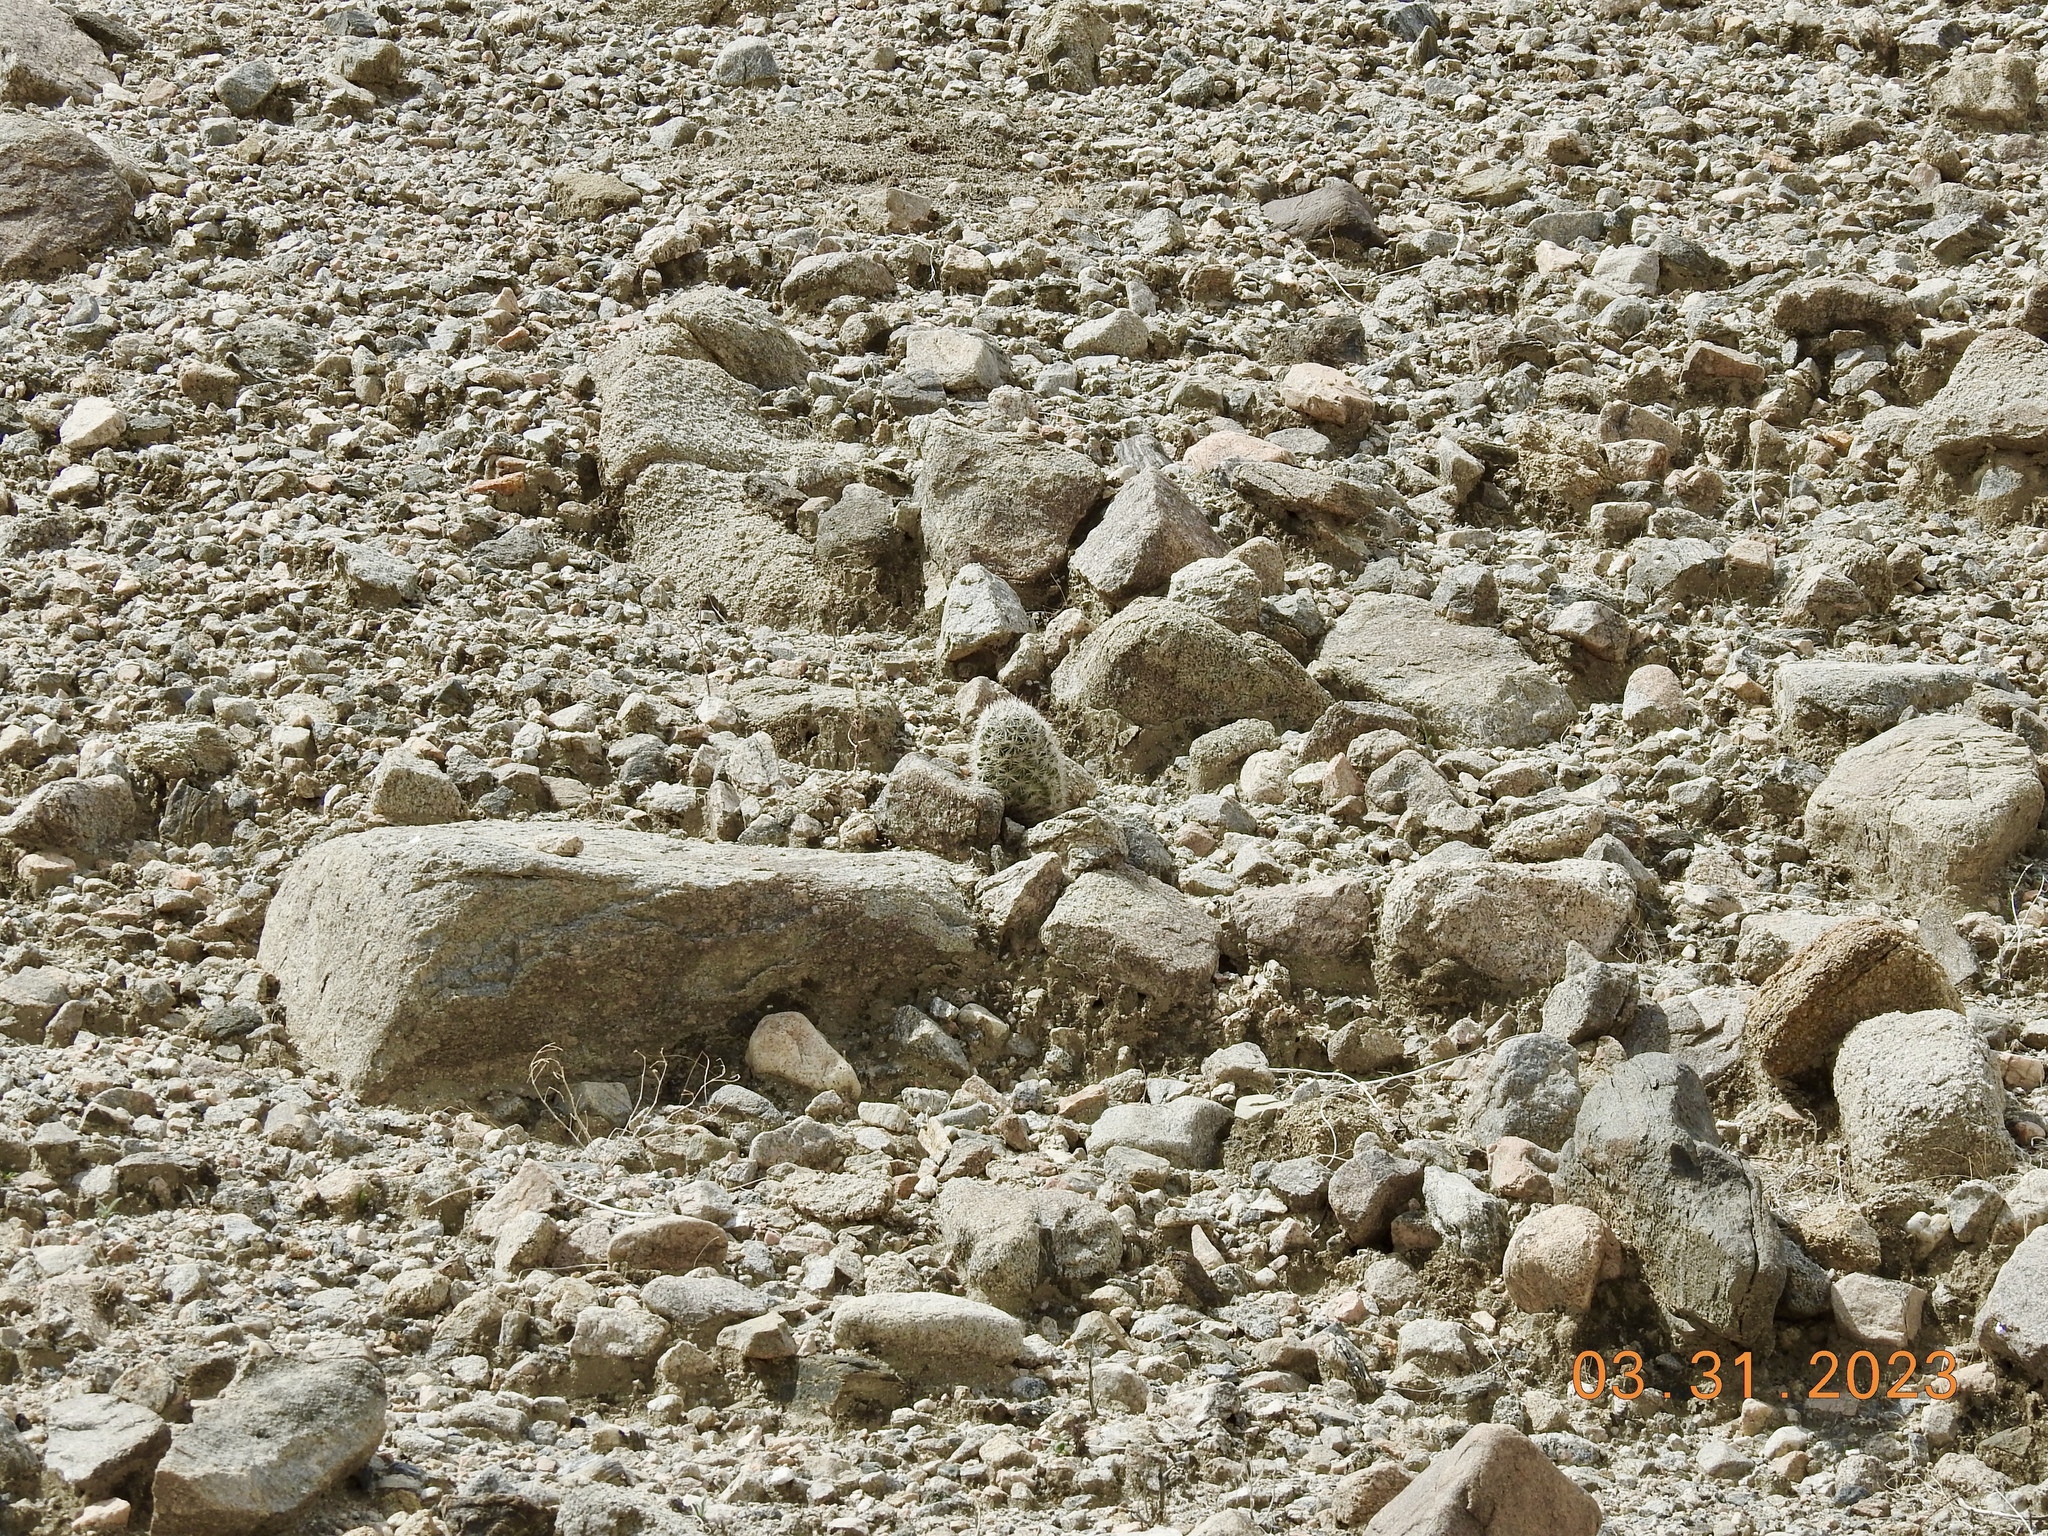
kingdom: Plantae
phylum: Tracheophyta
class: Magnoliopsida
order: Caryophyllales
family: Cactaceae
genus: Cochemiea
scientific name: Cochemiea tetrancistra
